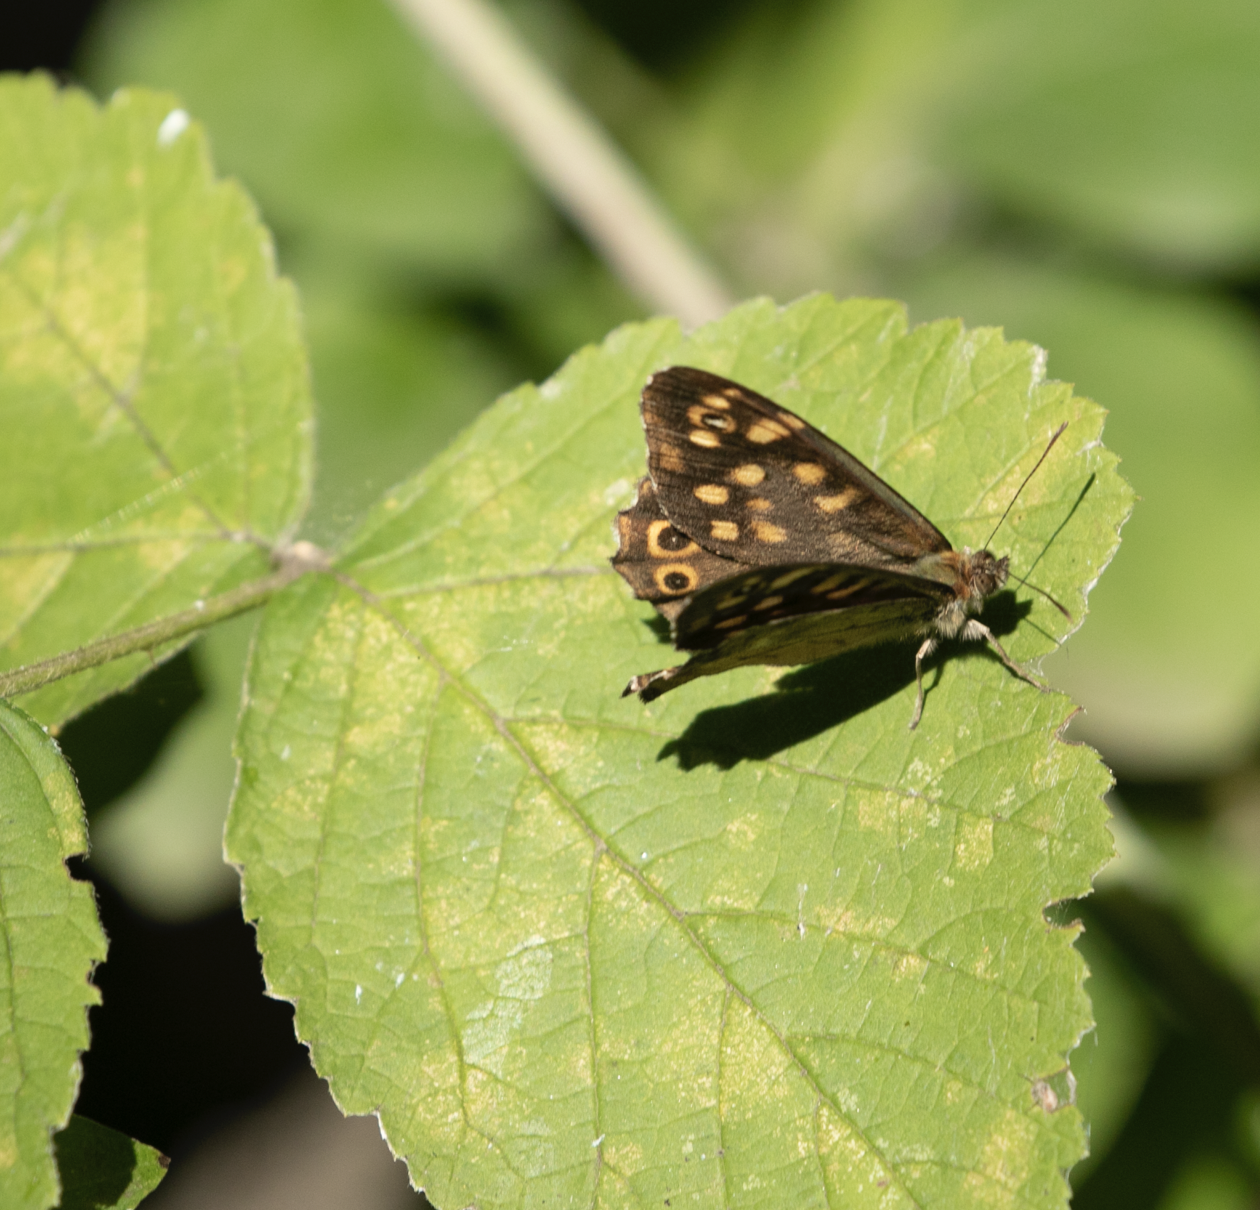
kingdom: Animalia
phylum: Arthropoda
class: Insecta
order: Lepidoptera
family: Nymphalidae
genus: Pararge
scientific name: Pararge aegeria
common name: Speckled wood
